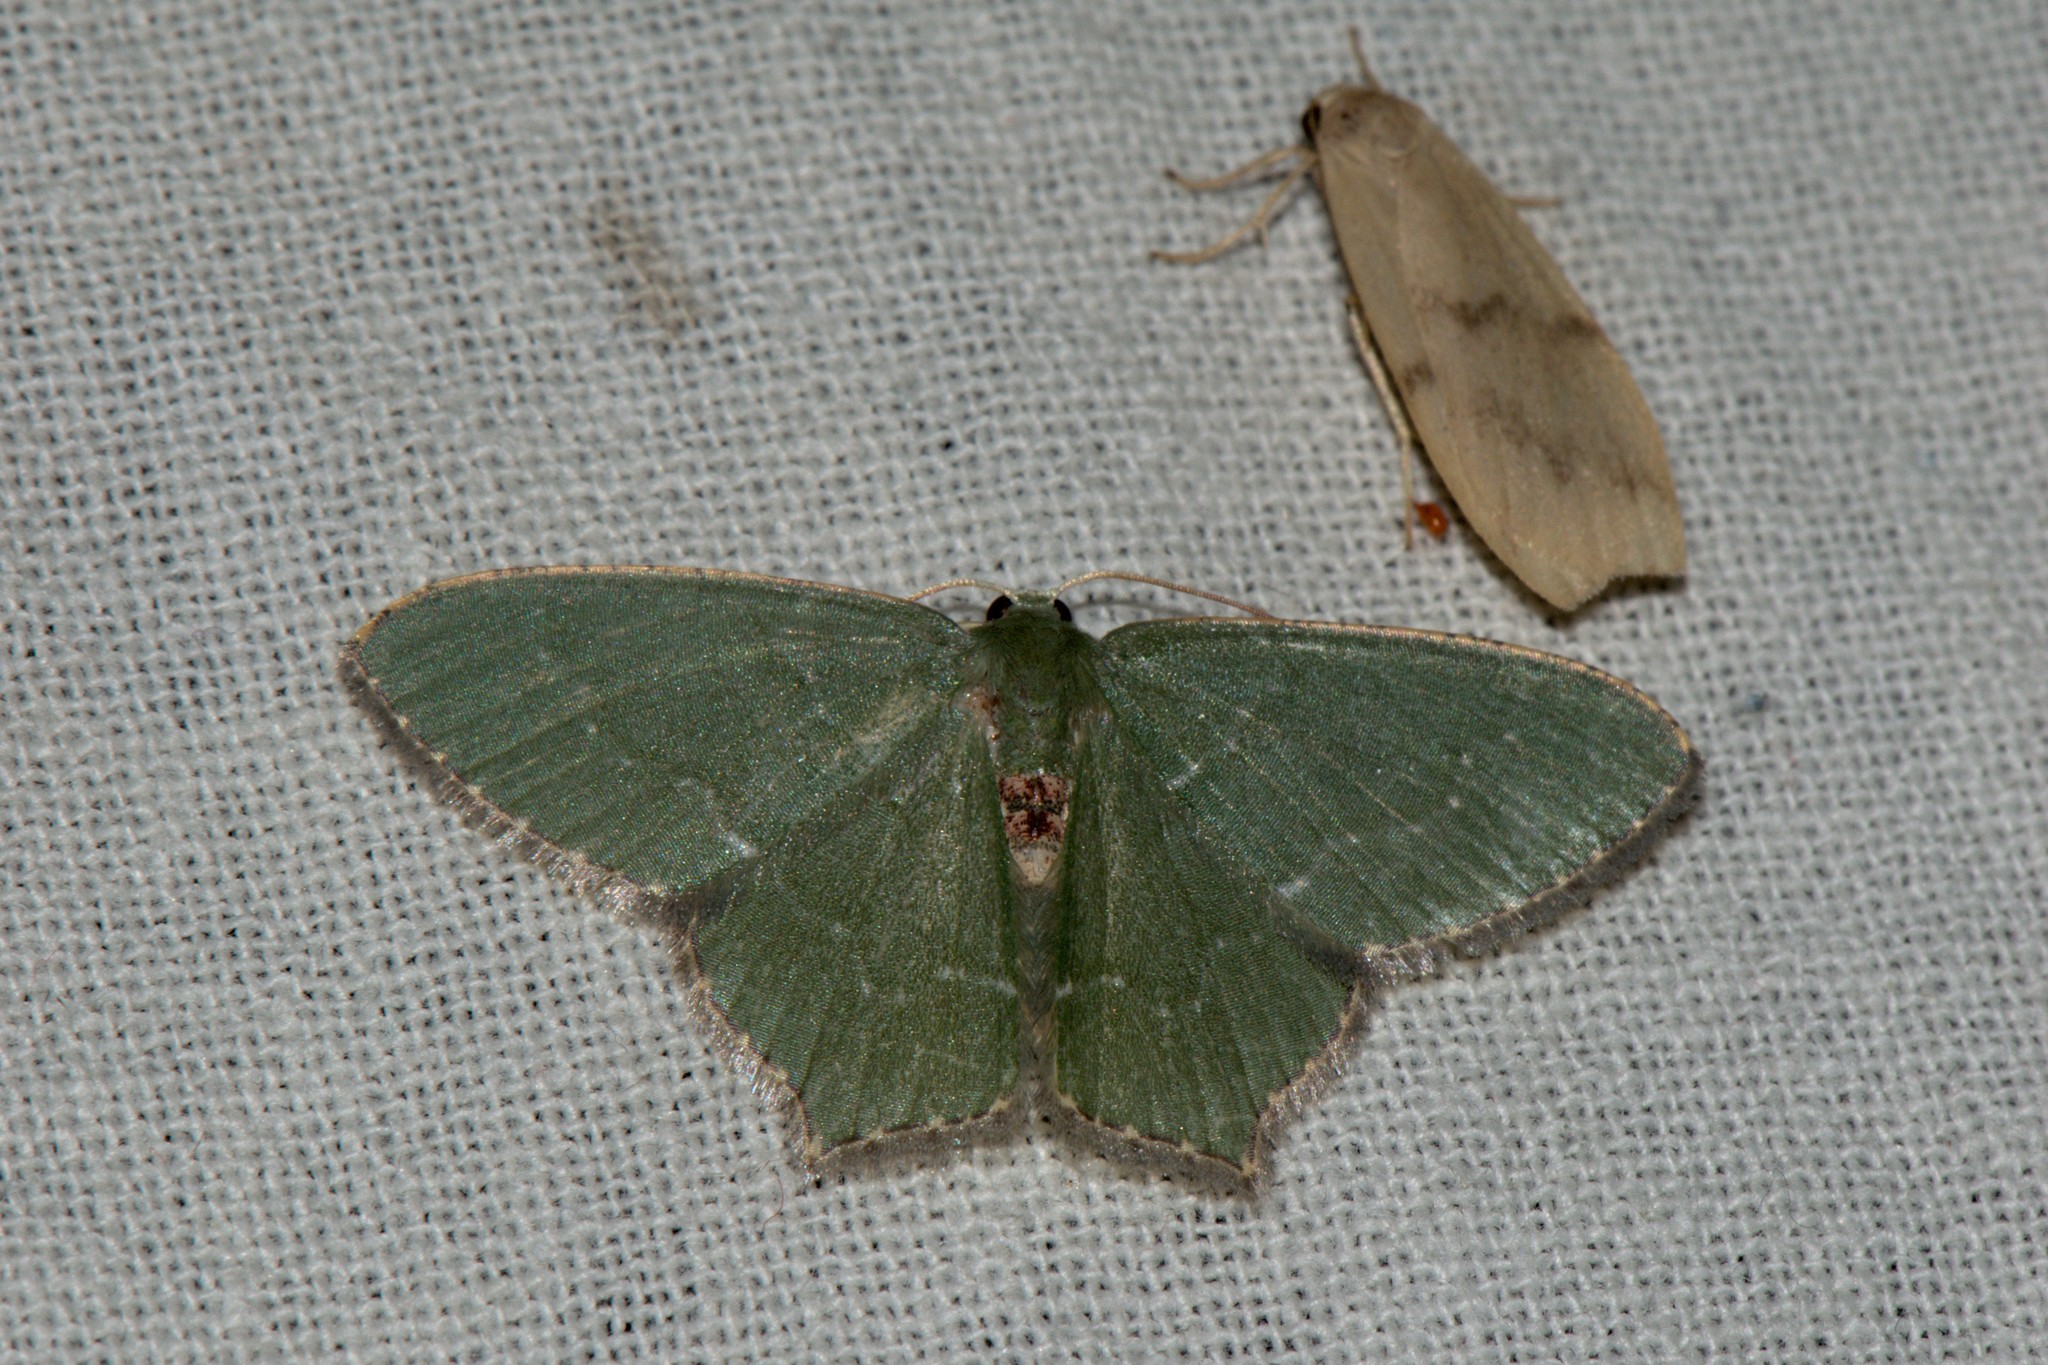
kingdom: Animalia
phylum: Arthropoda
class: Insecta
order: Lepidoptera
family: Geometridae
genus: Hemithea
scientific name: Hemithea tritonaria
